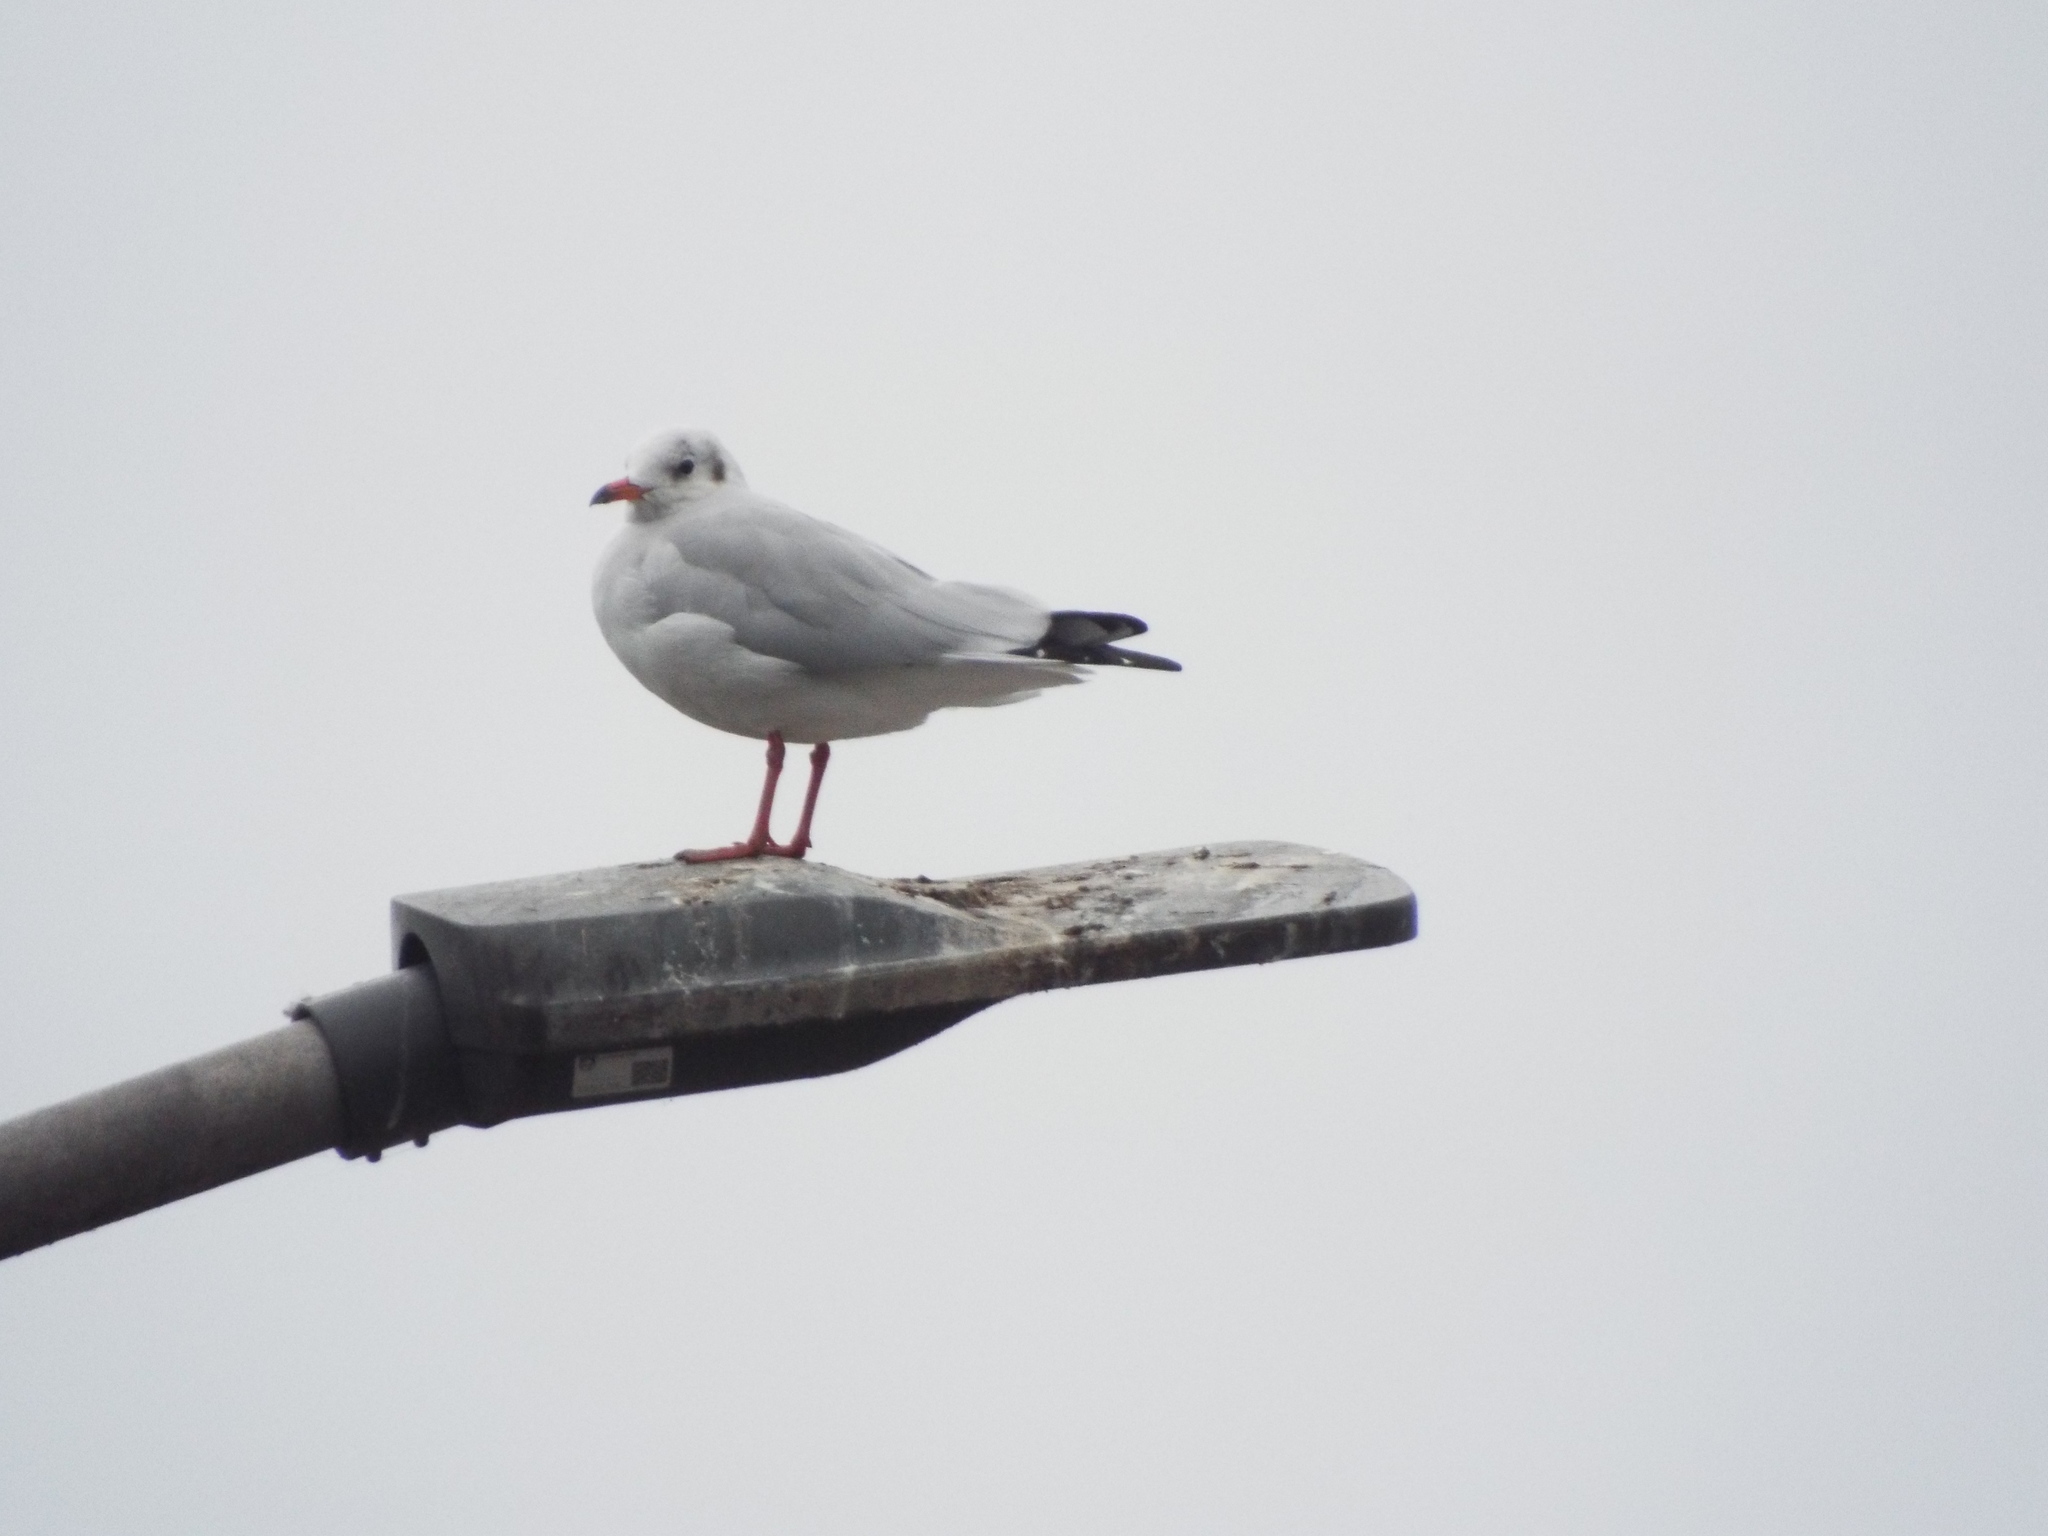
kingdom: Animalia
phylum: Chordata
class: Aves
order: Charadriiformes
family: Laridae
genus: Chroicocephalus
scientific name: Chroicocephalus ridibundus
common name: Black-headed gull
